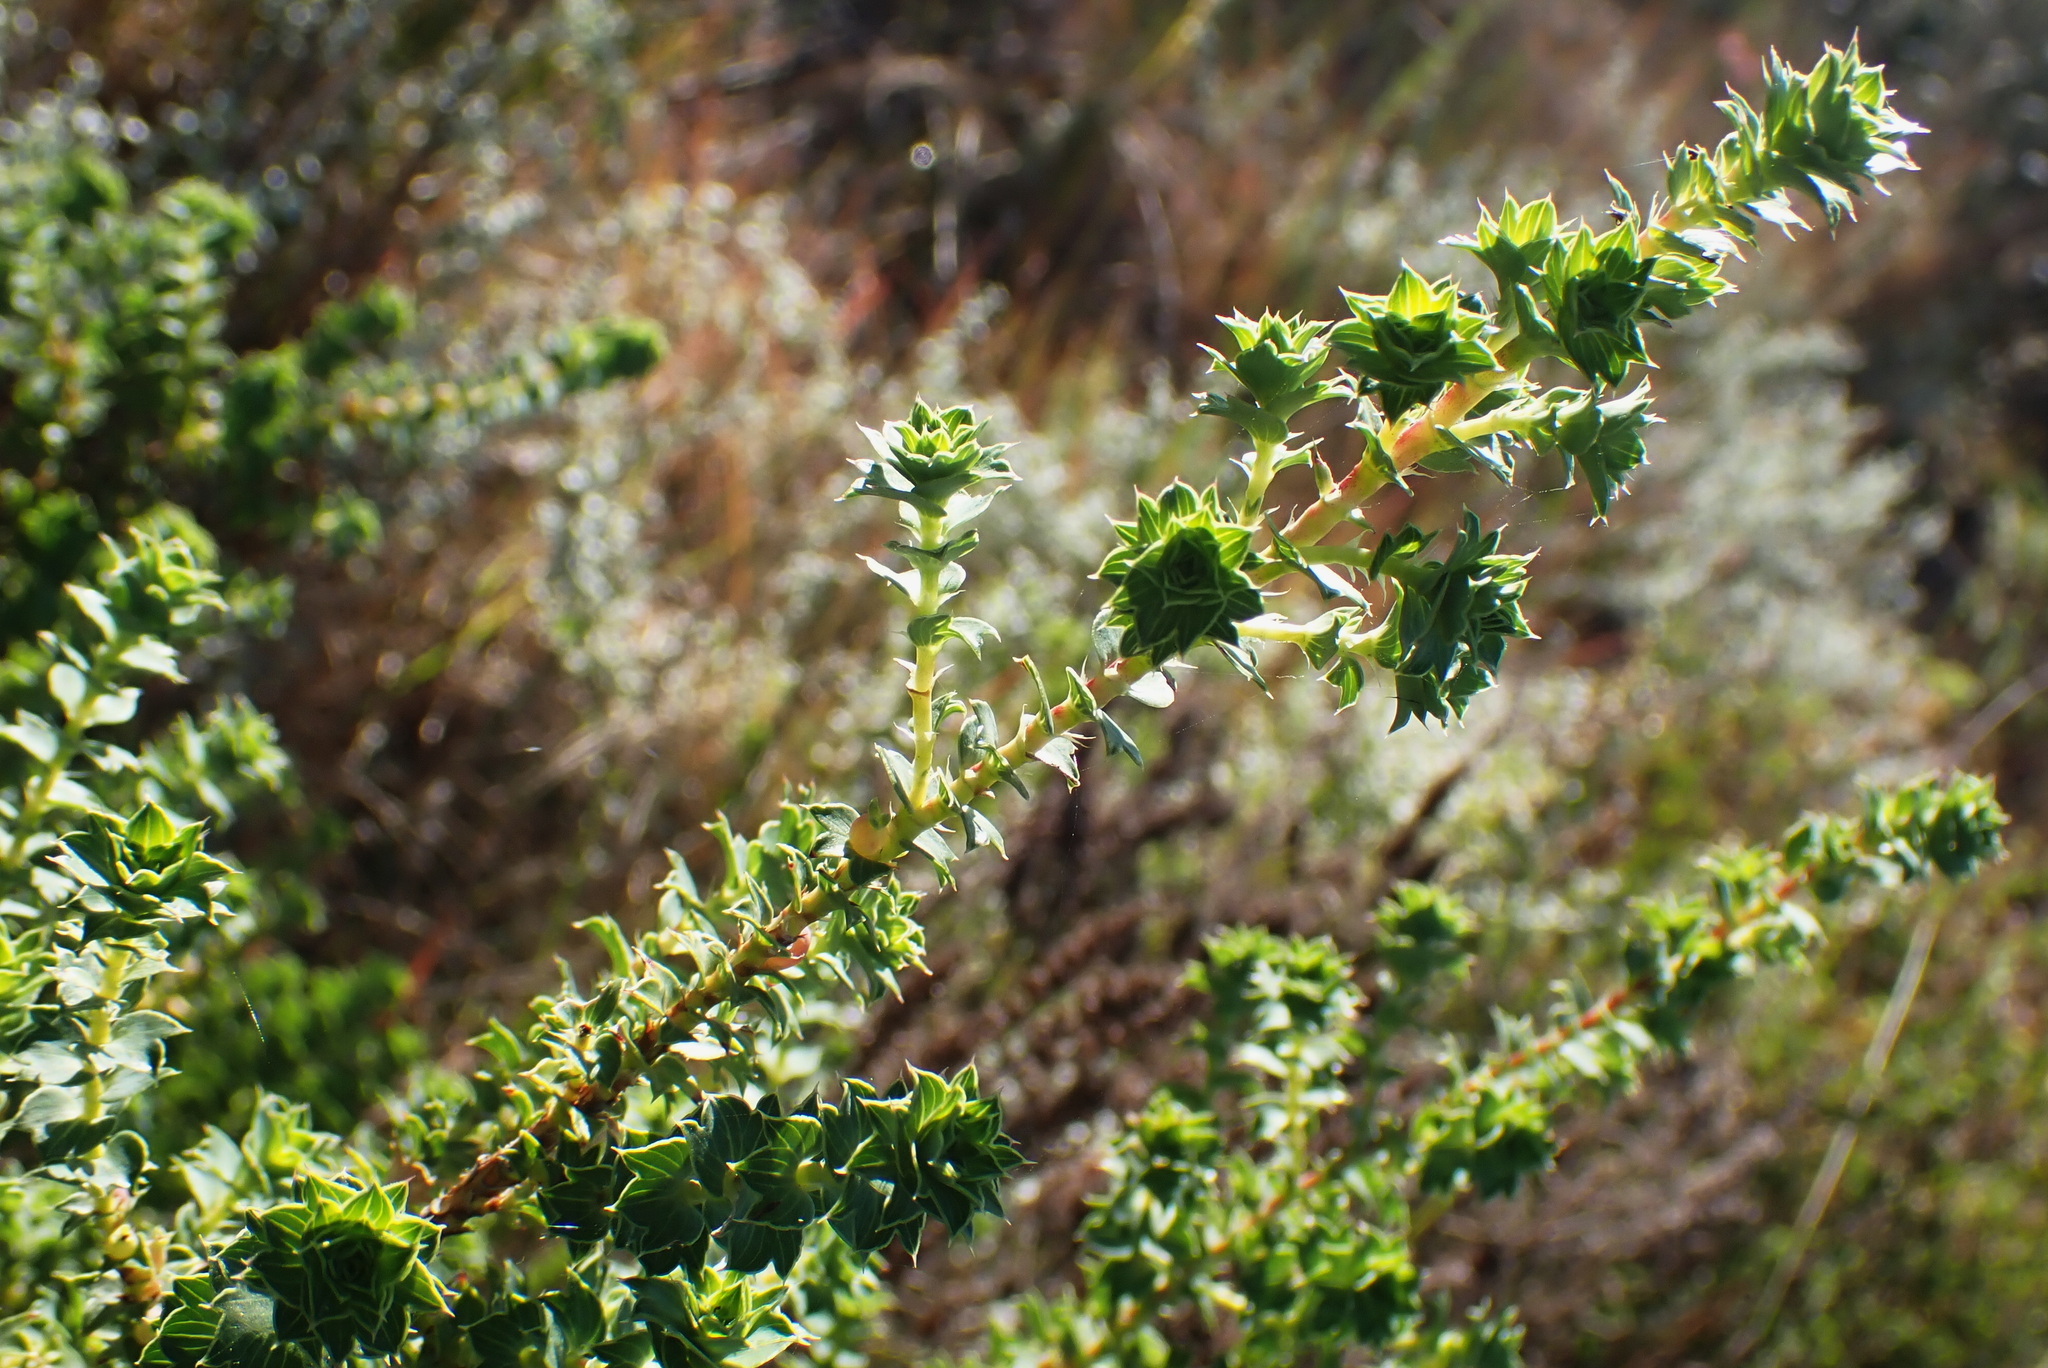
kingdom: Plantae
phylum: Tracheophyta
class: Magnoliopsida
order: Rosales
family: Rosaceae
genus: Cliffortia
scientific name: Cliffortia schlechteri
